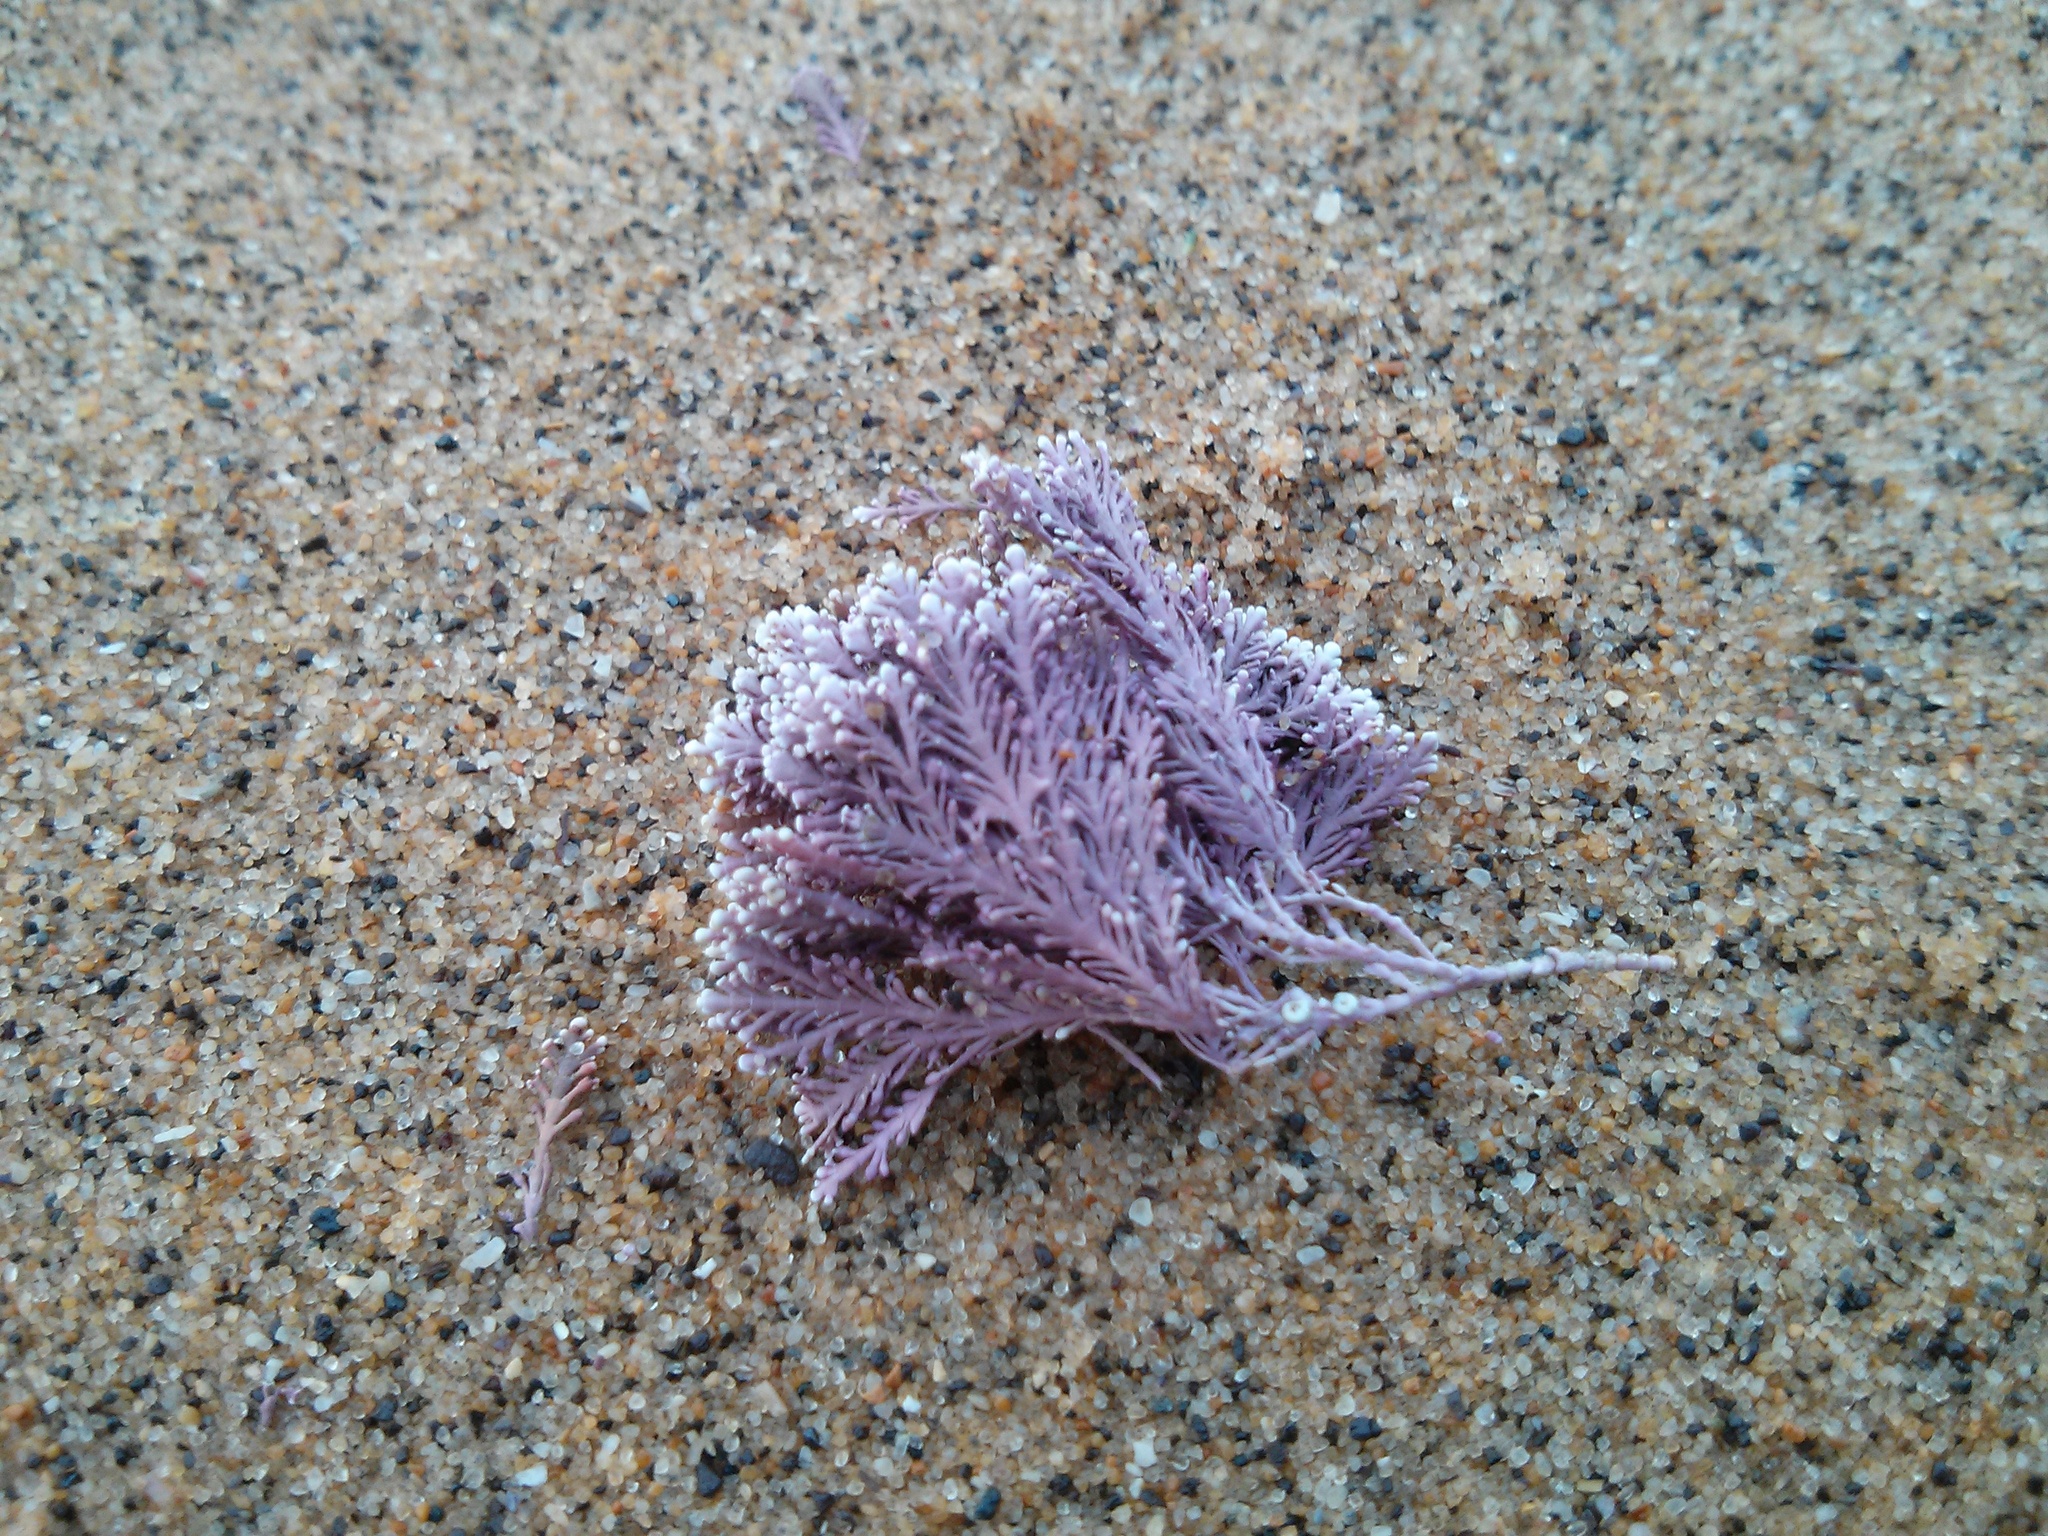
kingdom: Plantae
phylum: Rhodophyta
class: Florideophyceae
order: Corallinales
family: Corallinaceae
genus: Corallina
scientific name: Corallina officinalis
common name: Coral weed
